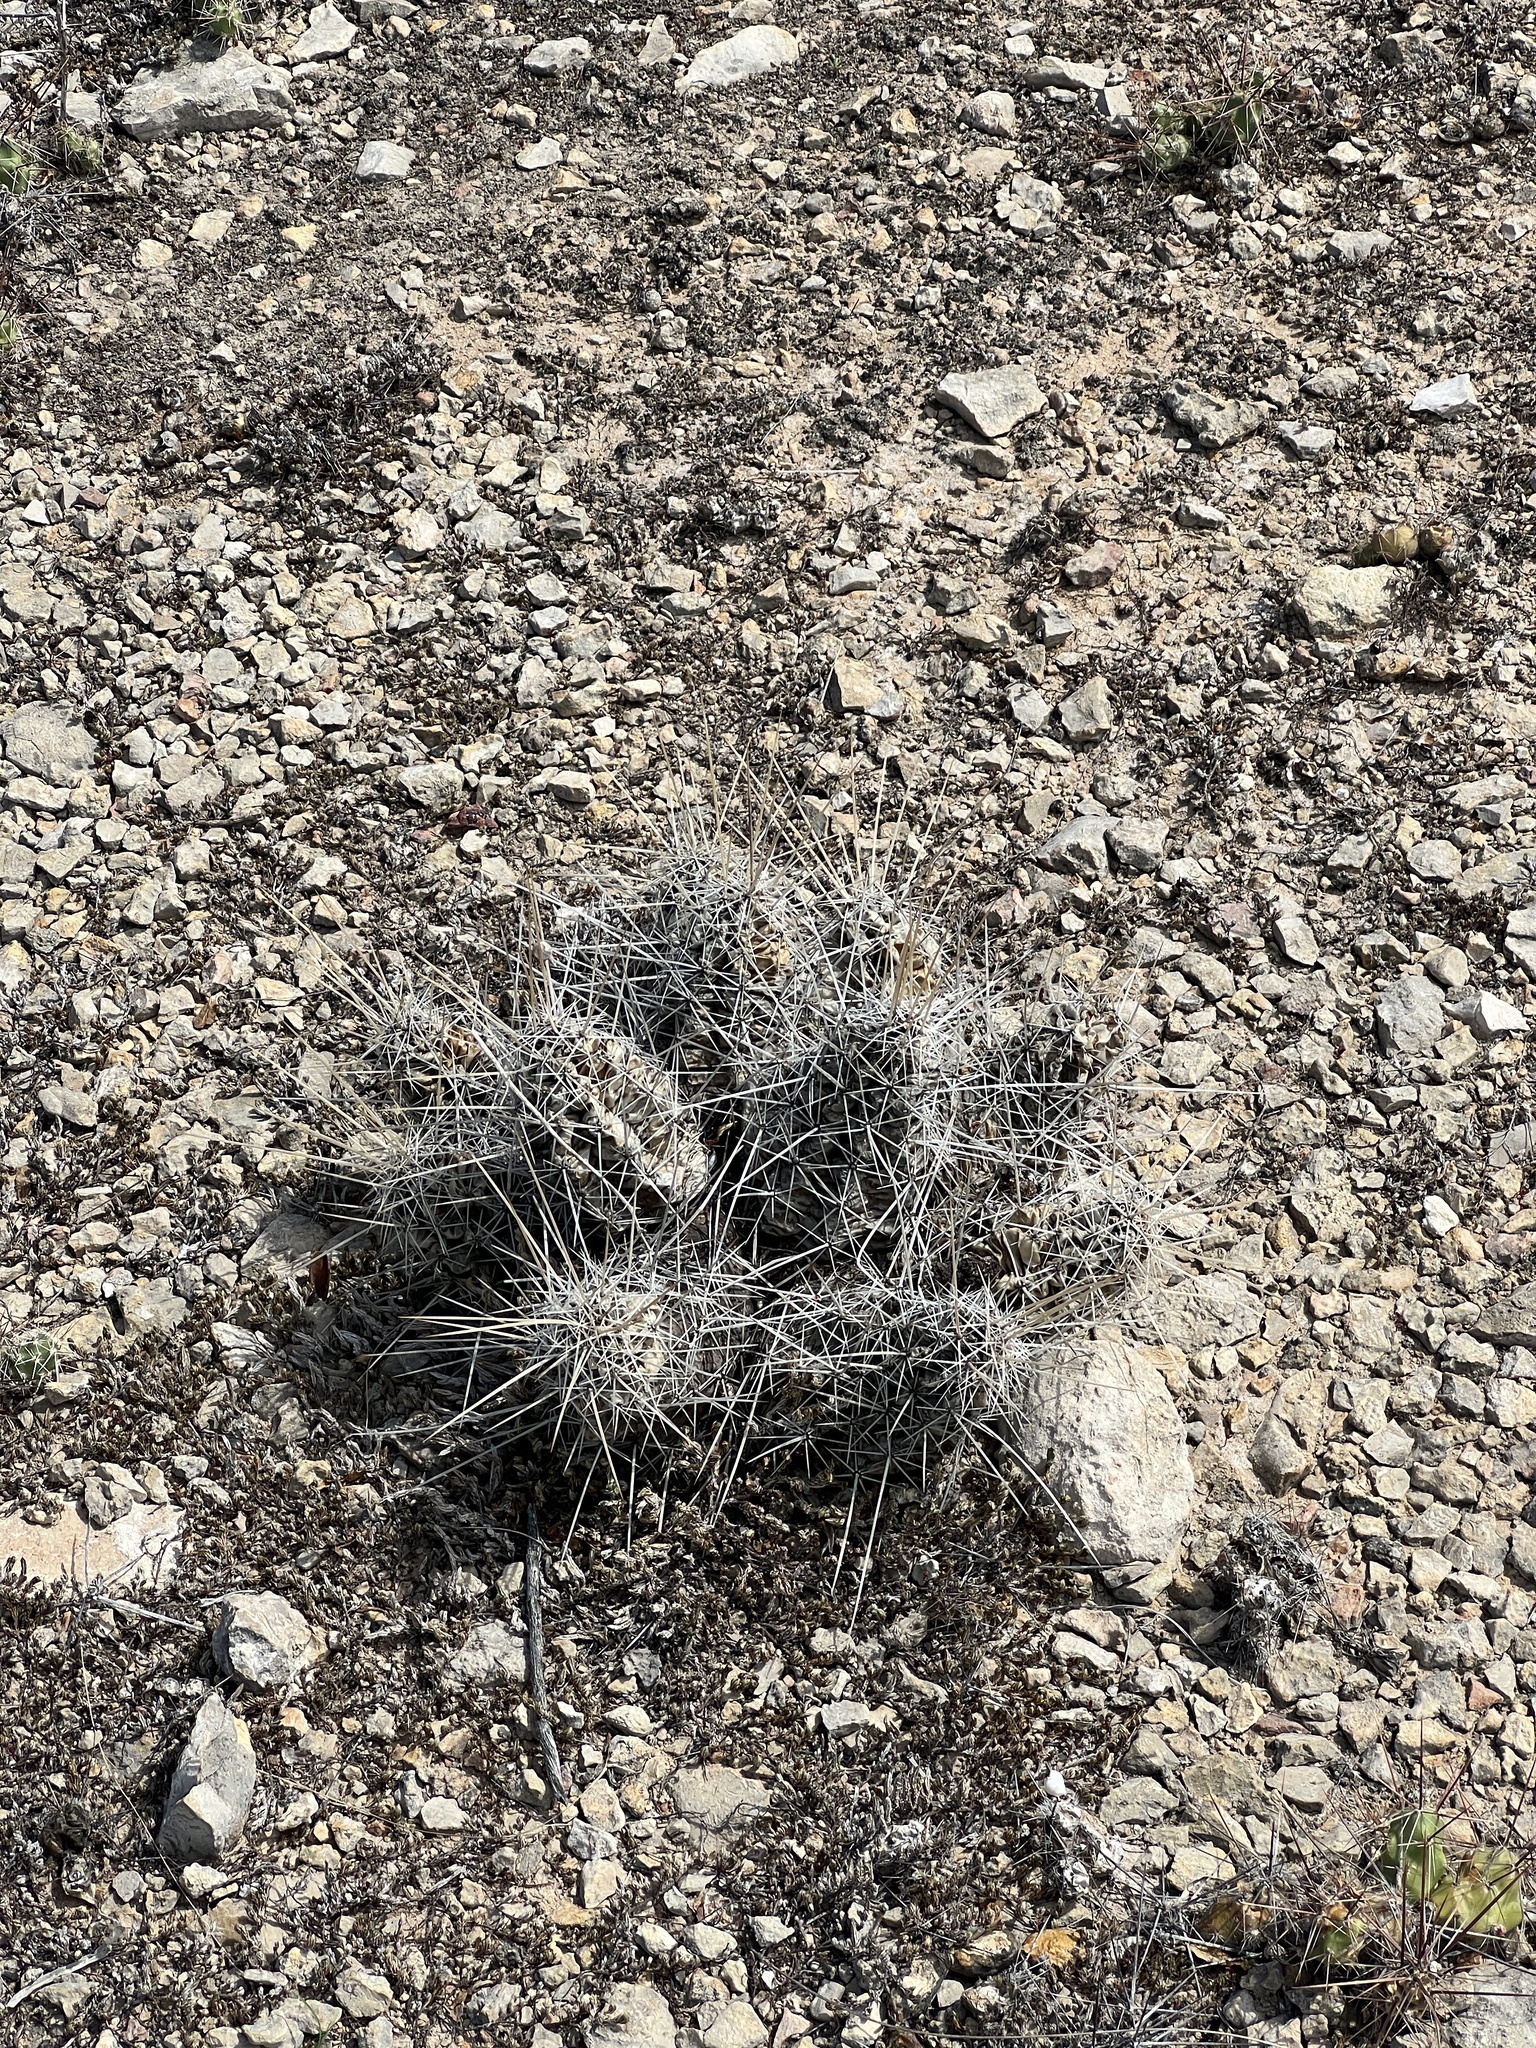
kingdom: Plantae
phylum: Tracheophyta
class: Magnoliopsida
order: Caryophyllales
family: Cactaceae
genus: Echinocereus
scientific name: Echinocereus enneacanthus
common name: Pitaya
